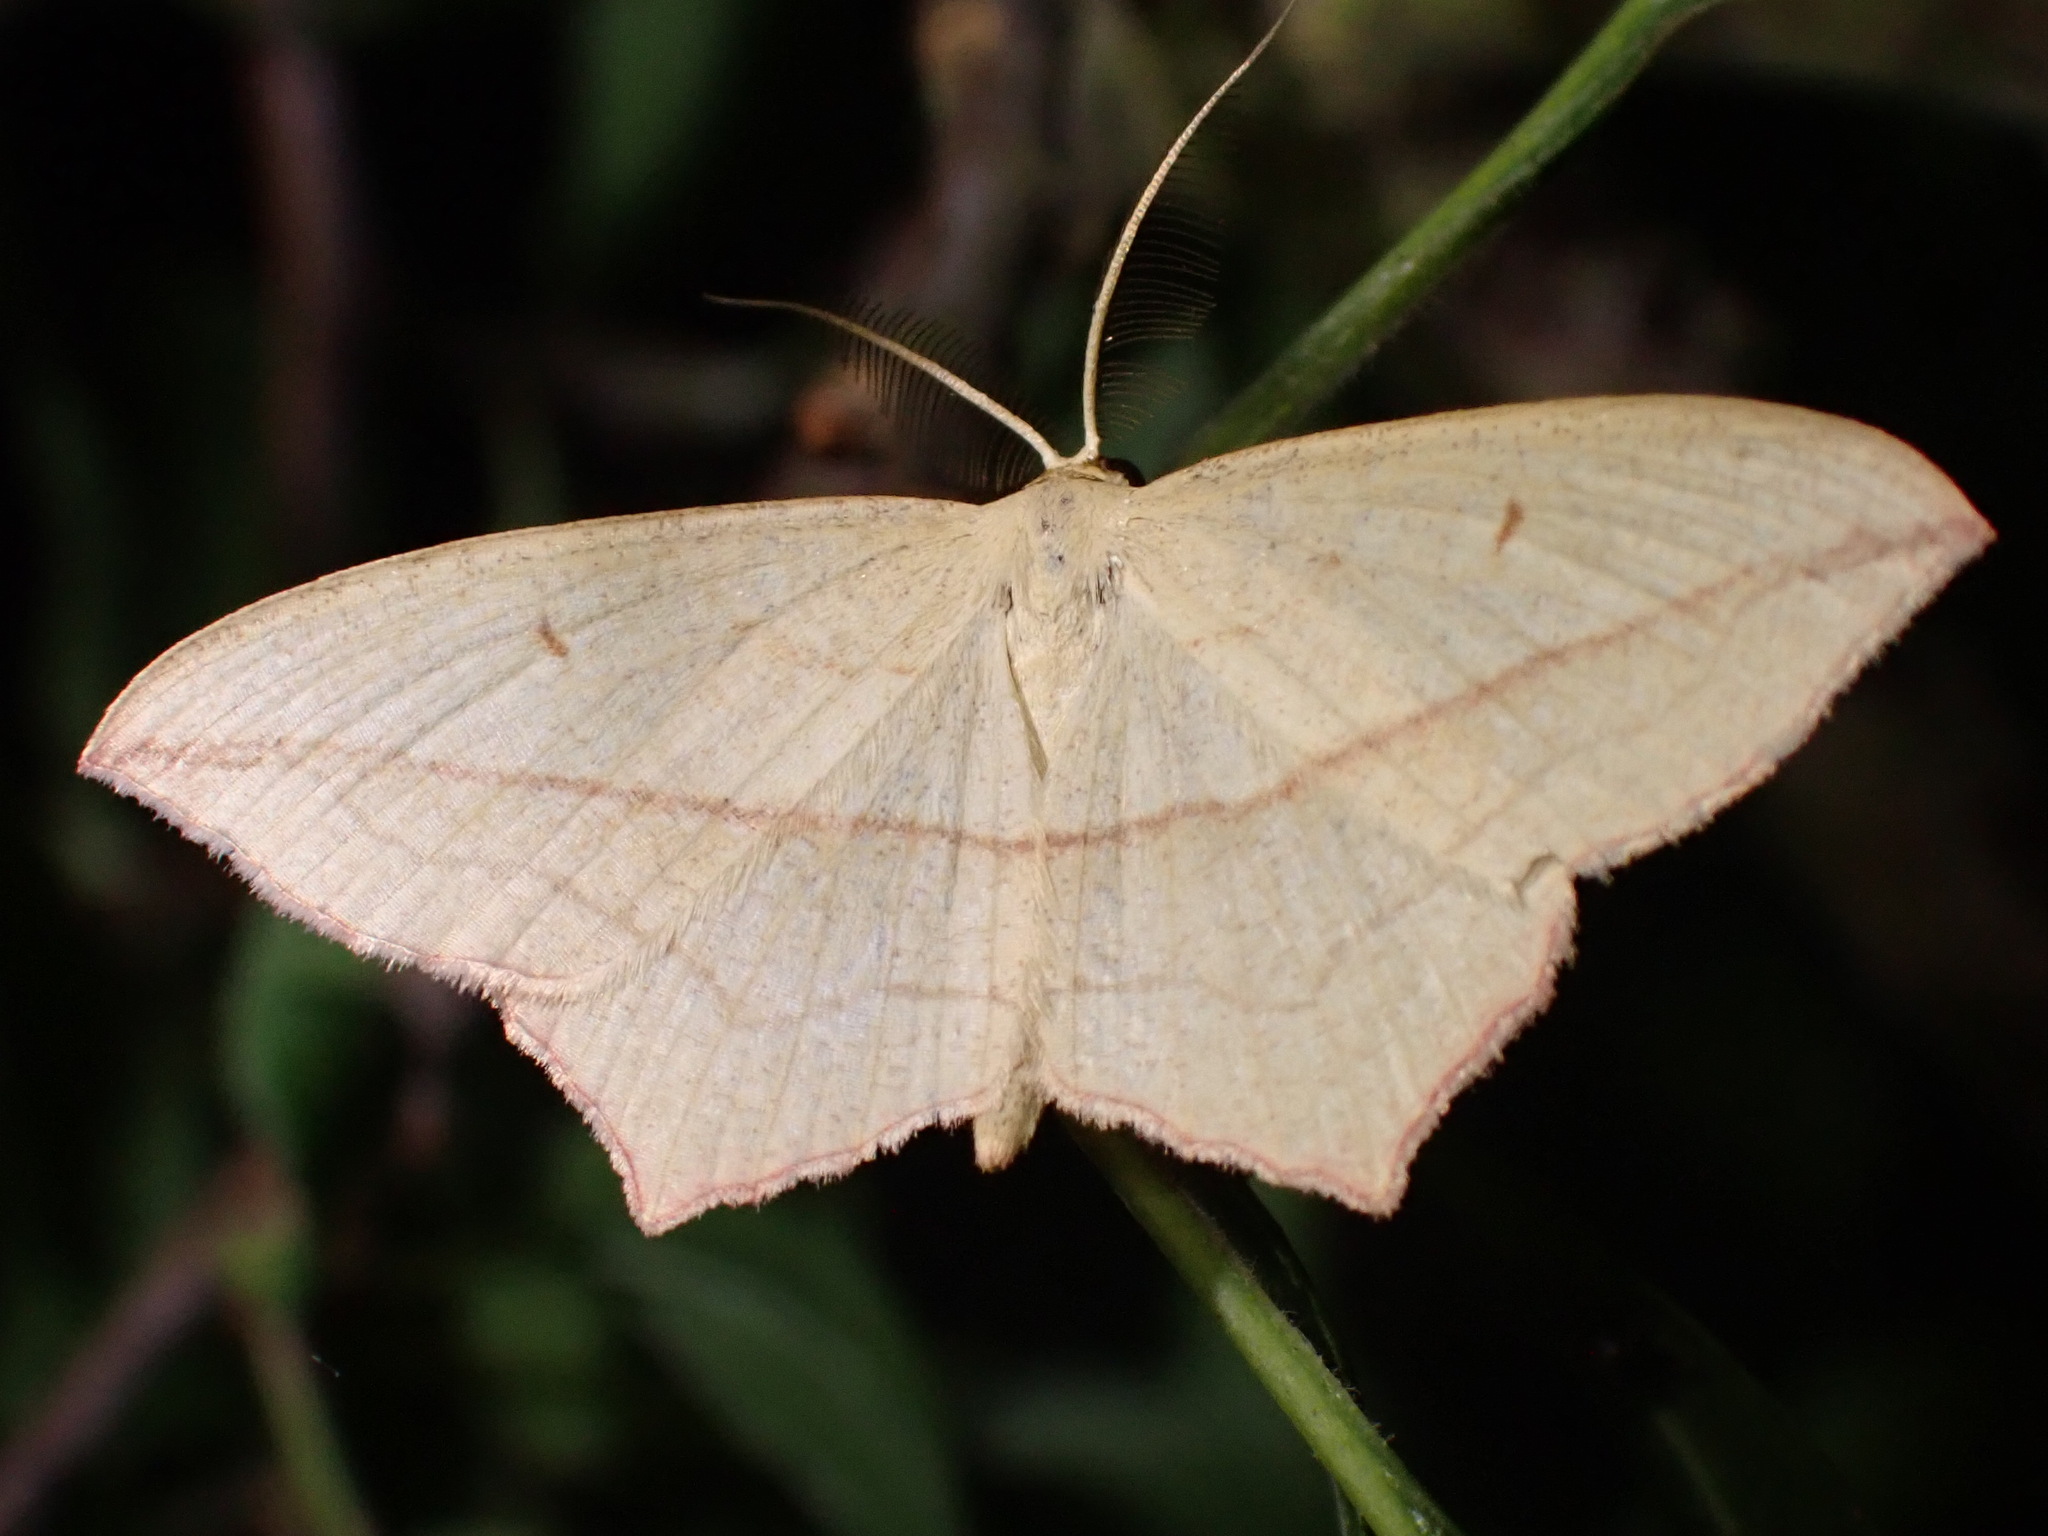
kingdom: Animalia
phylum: Arthropoda
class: Insecta
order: Lepidoptera
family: Geometridae
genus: Timandra
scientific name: Timandra comae
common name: Blood-vein
